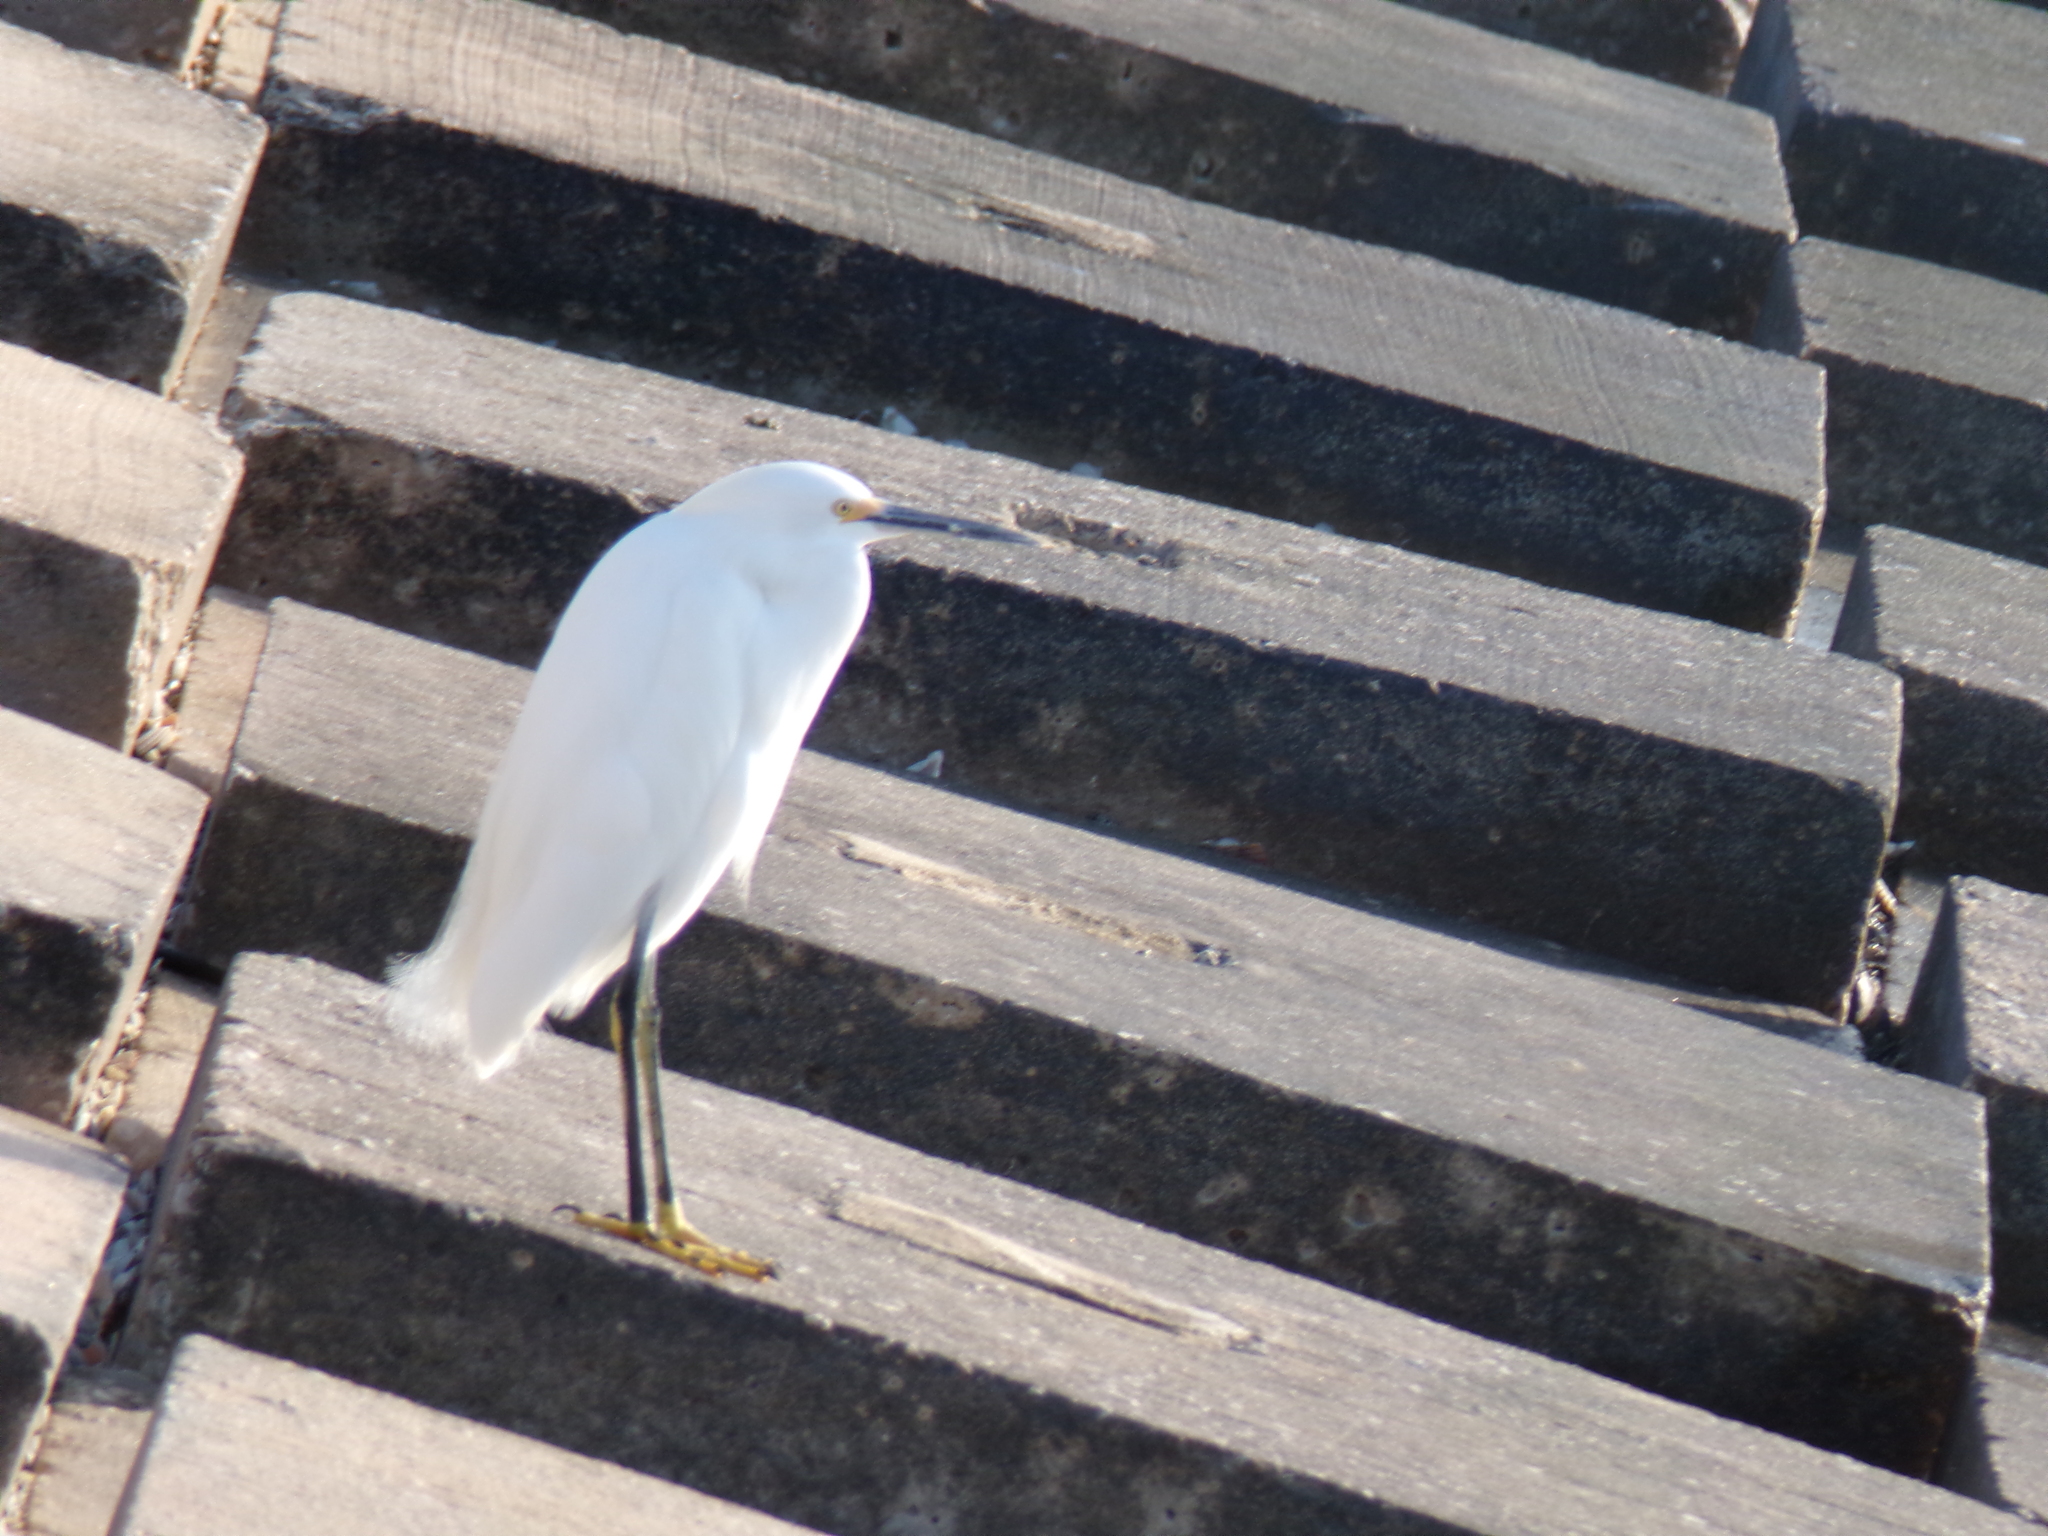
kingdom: Animalia
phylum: Chordata
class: Aves
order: Pelecaniformes
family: Ardeidae
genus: Egretta
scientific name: Egretta thula
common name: Snowy egret
